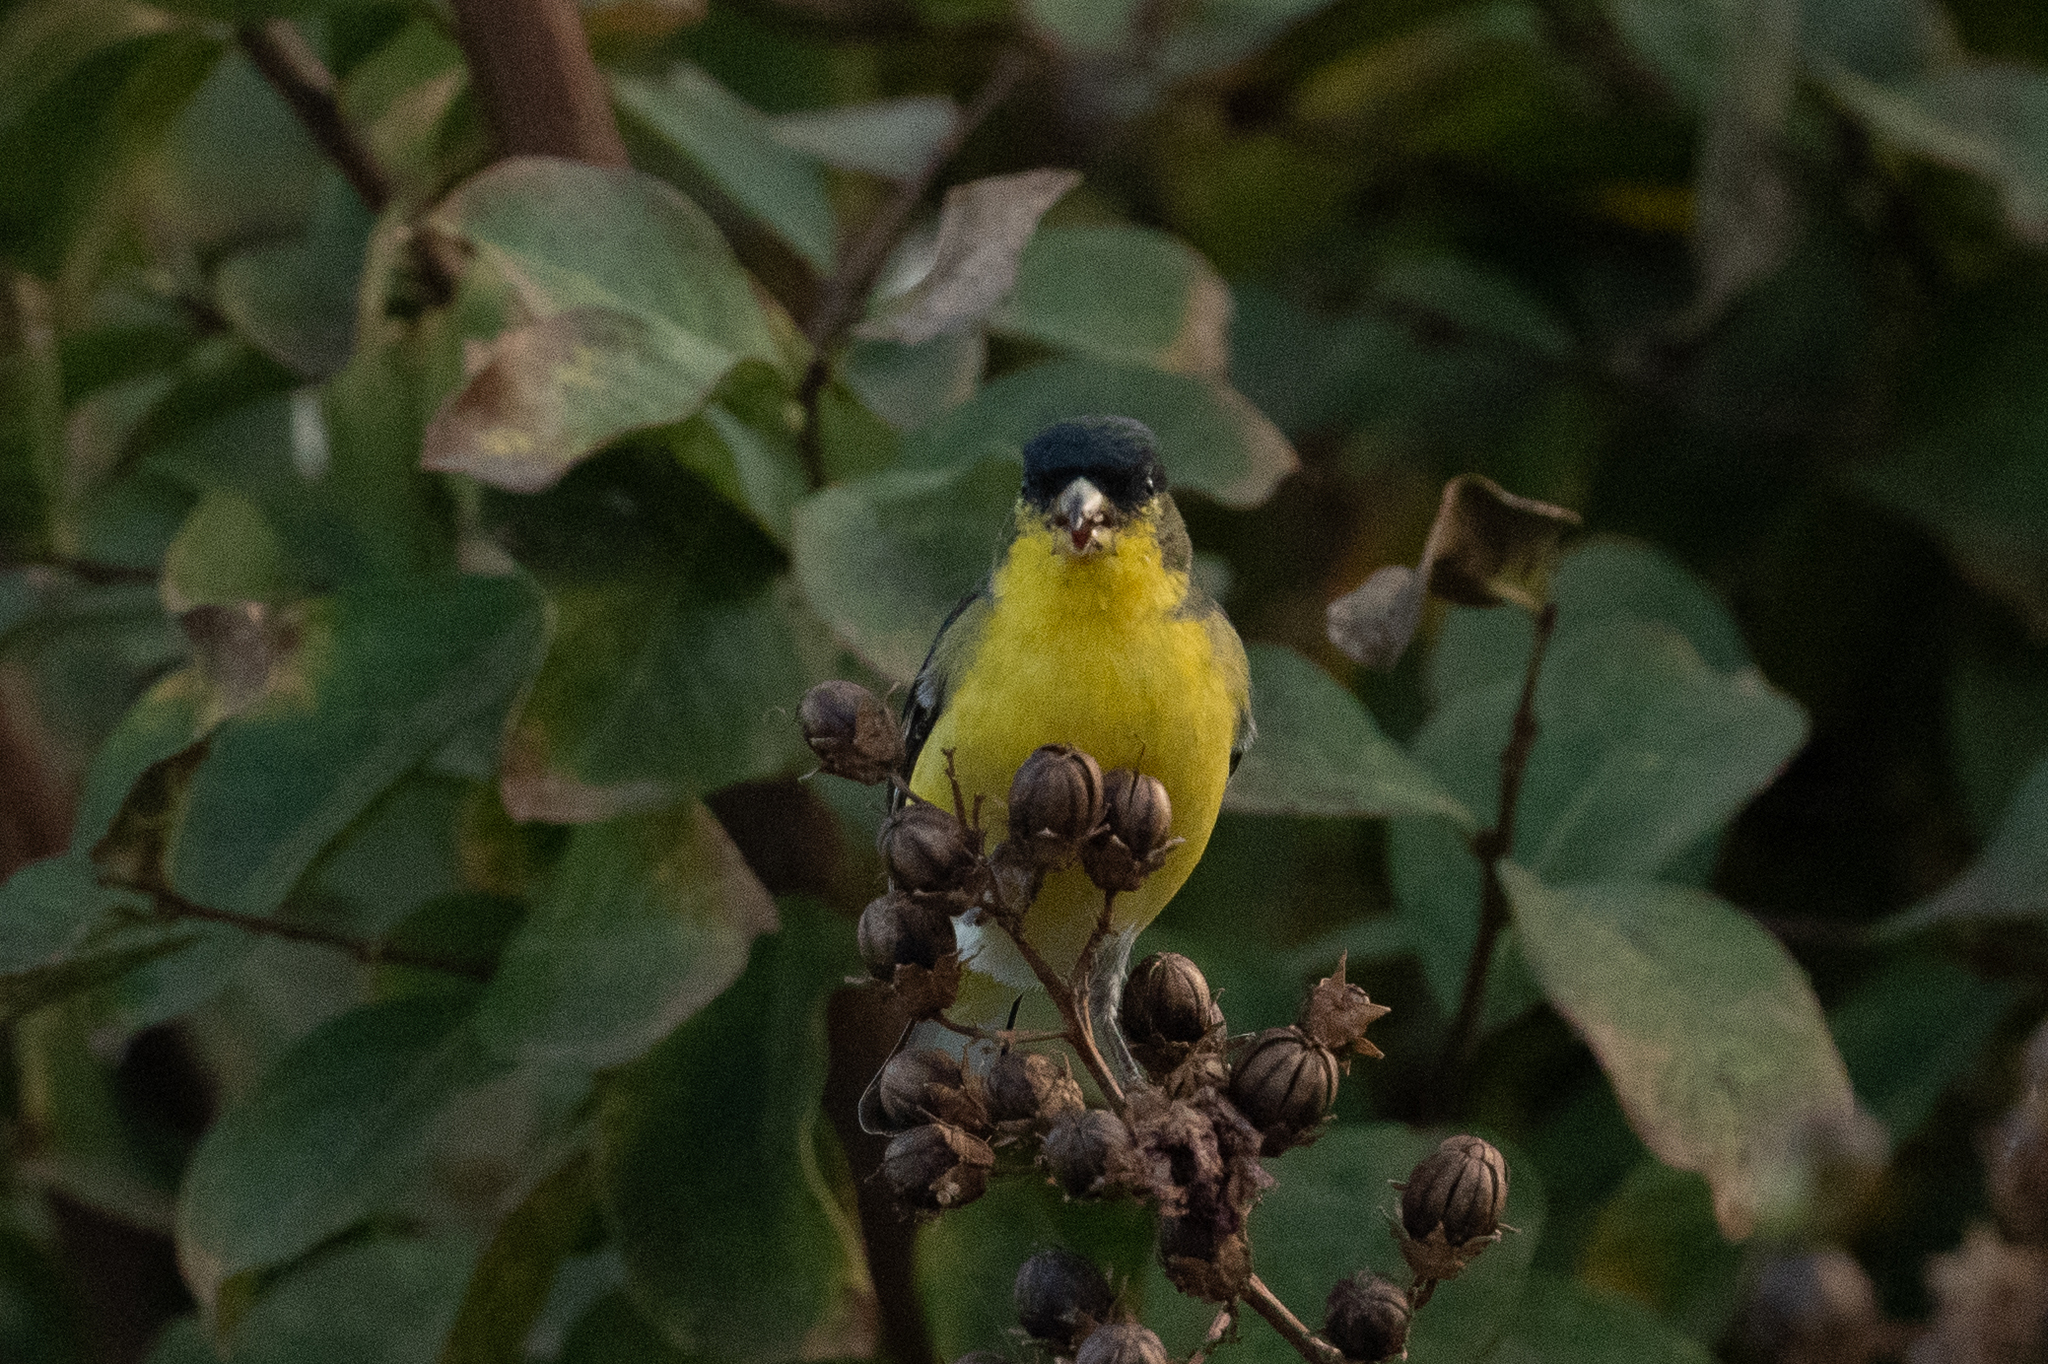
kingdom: Animalia
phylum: Chordata
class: Aves
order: Passeriformes
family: Fringillidae
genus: Spinus
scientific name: Spinus psaltria
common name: Lesser goldfinch
